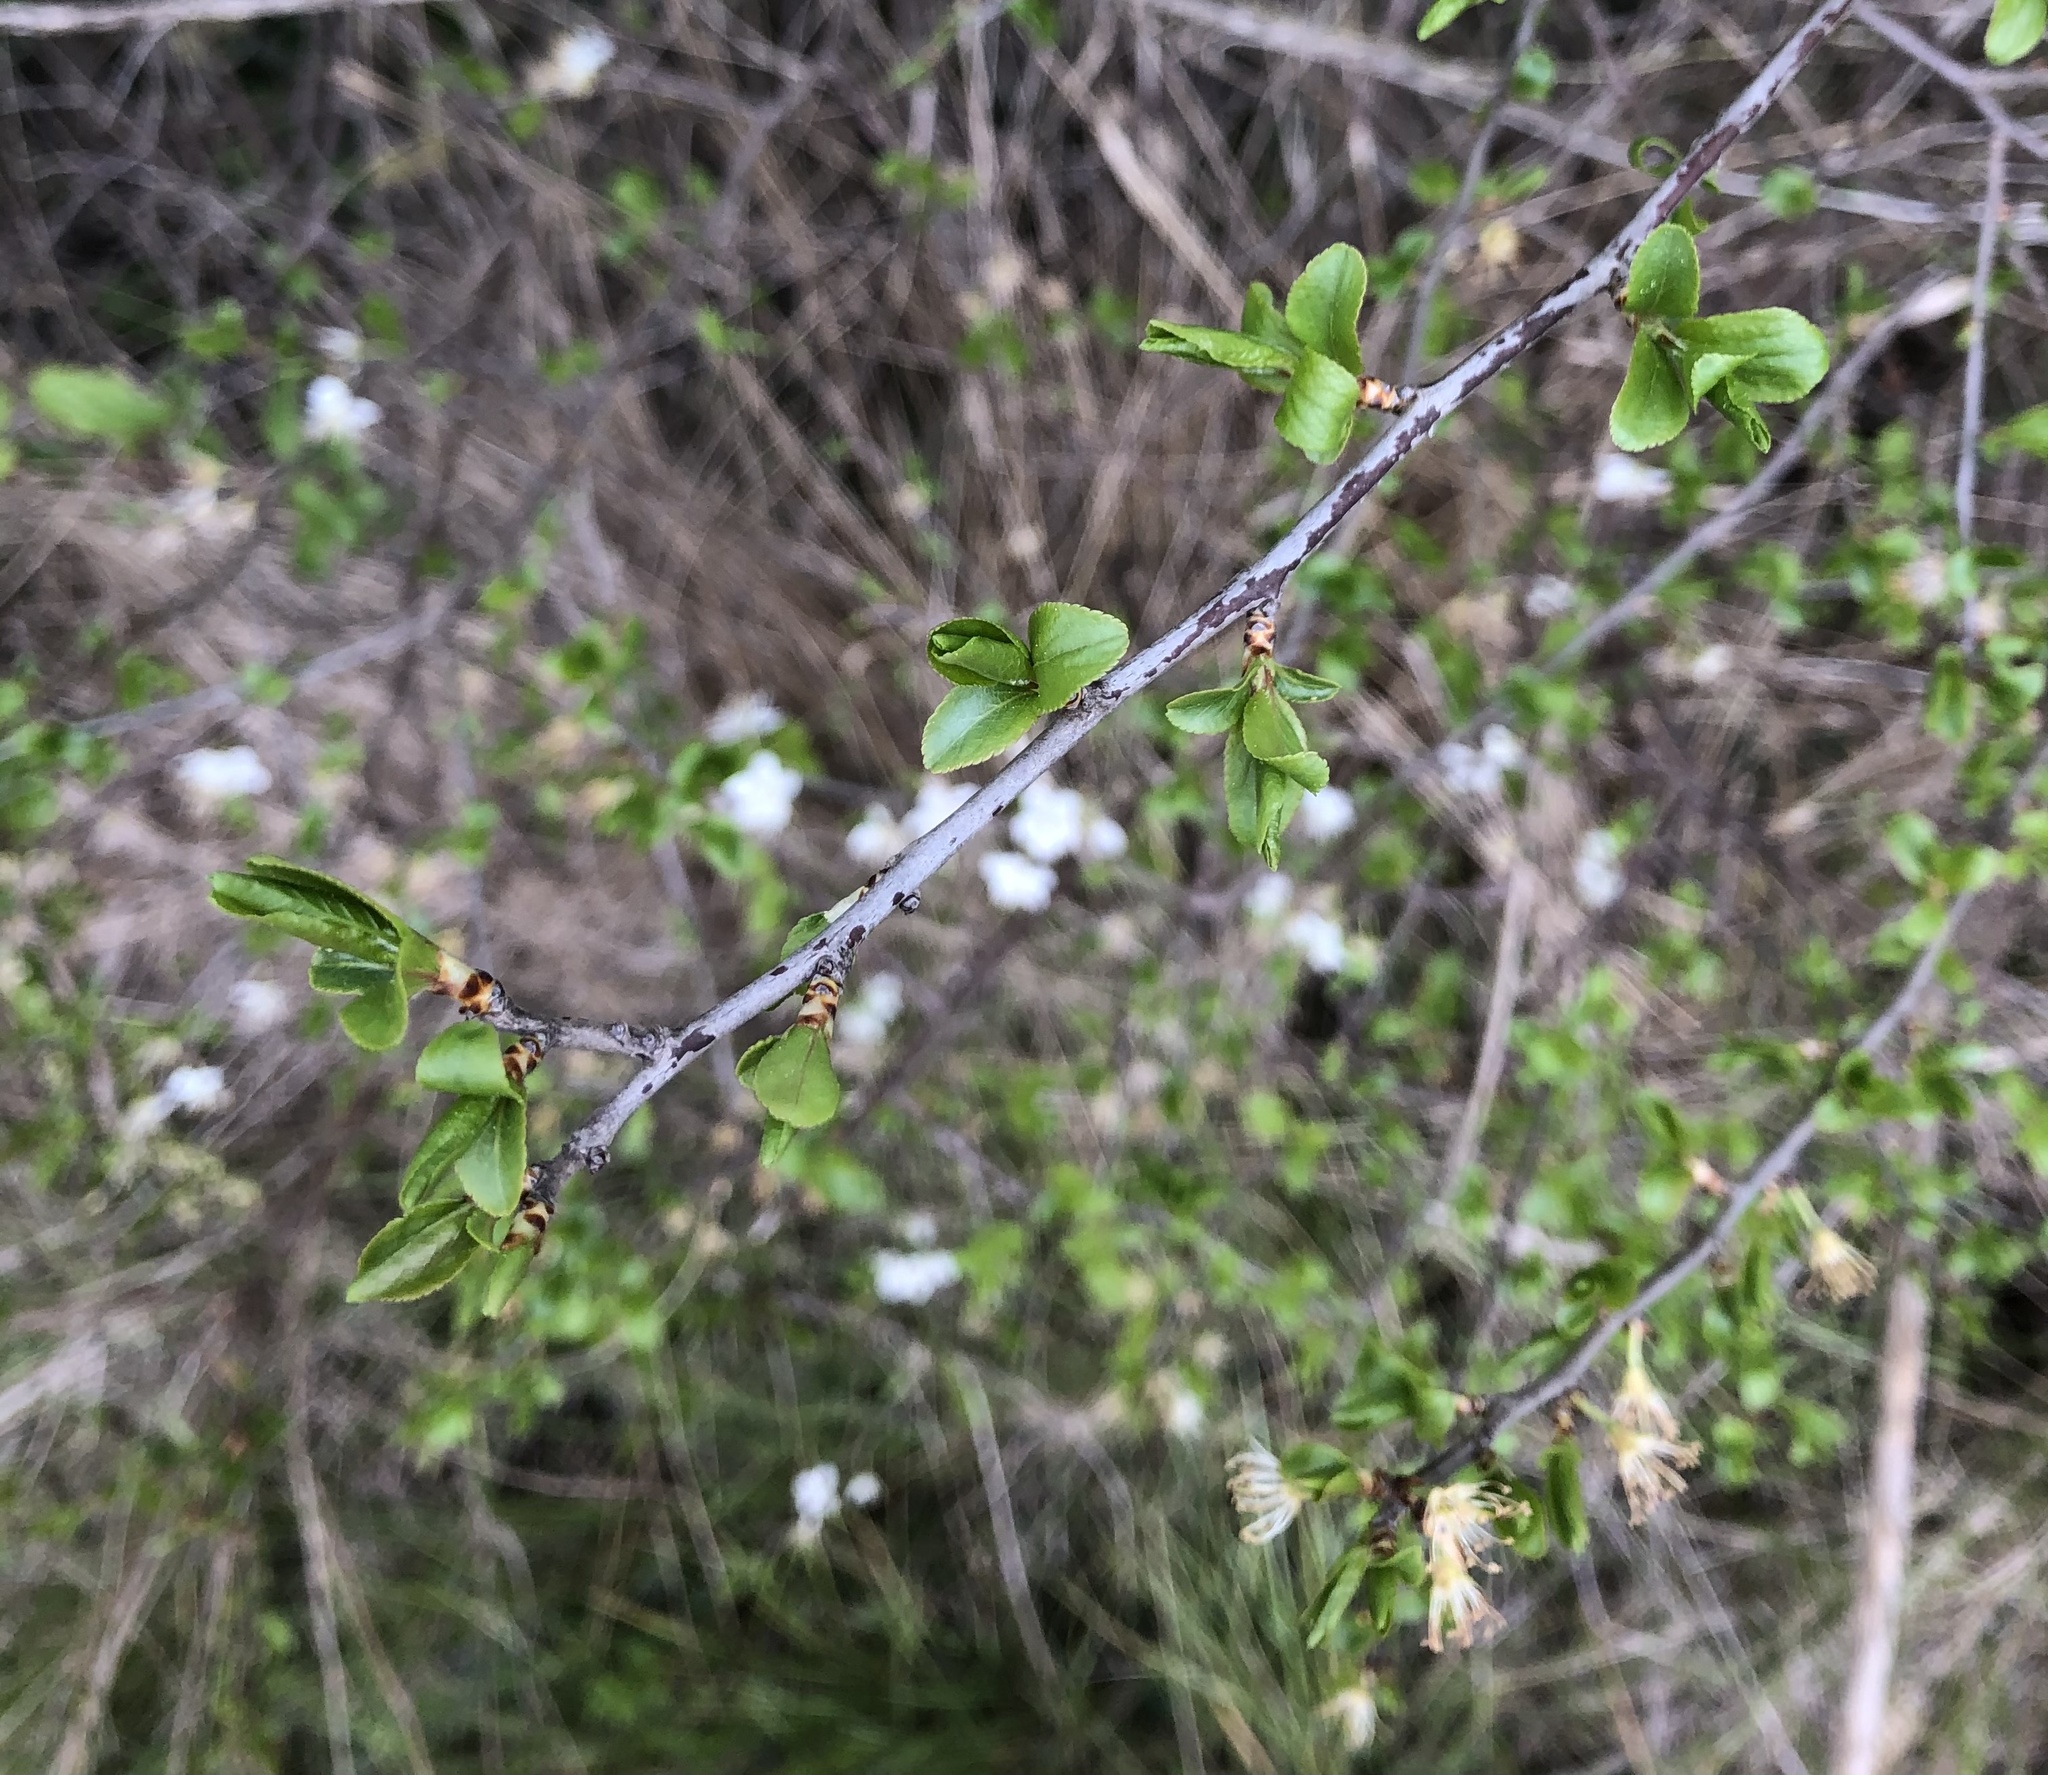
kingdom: Plantae
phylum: Tracheophyta
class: Magnoliopsida
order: Rosales
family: Rosaceae
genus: Prunus
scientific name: Prunus spinosa
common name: Blackthorn
